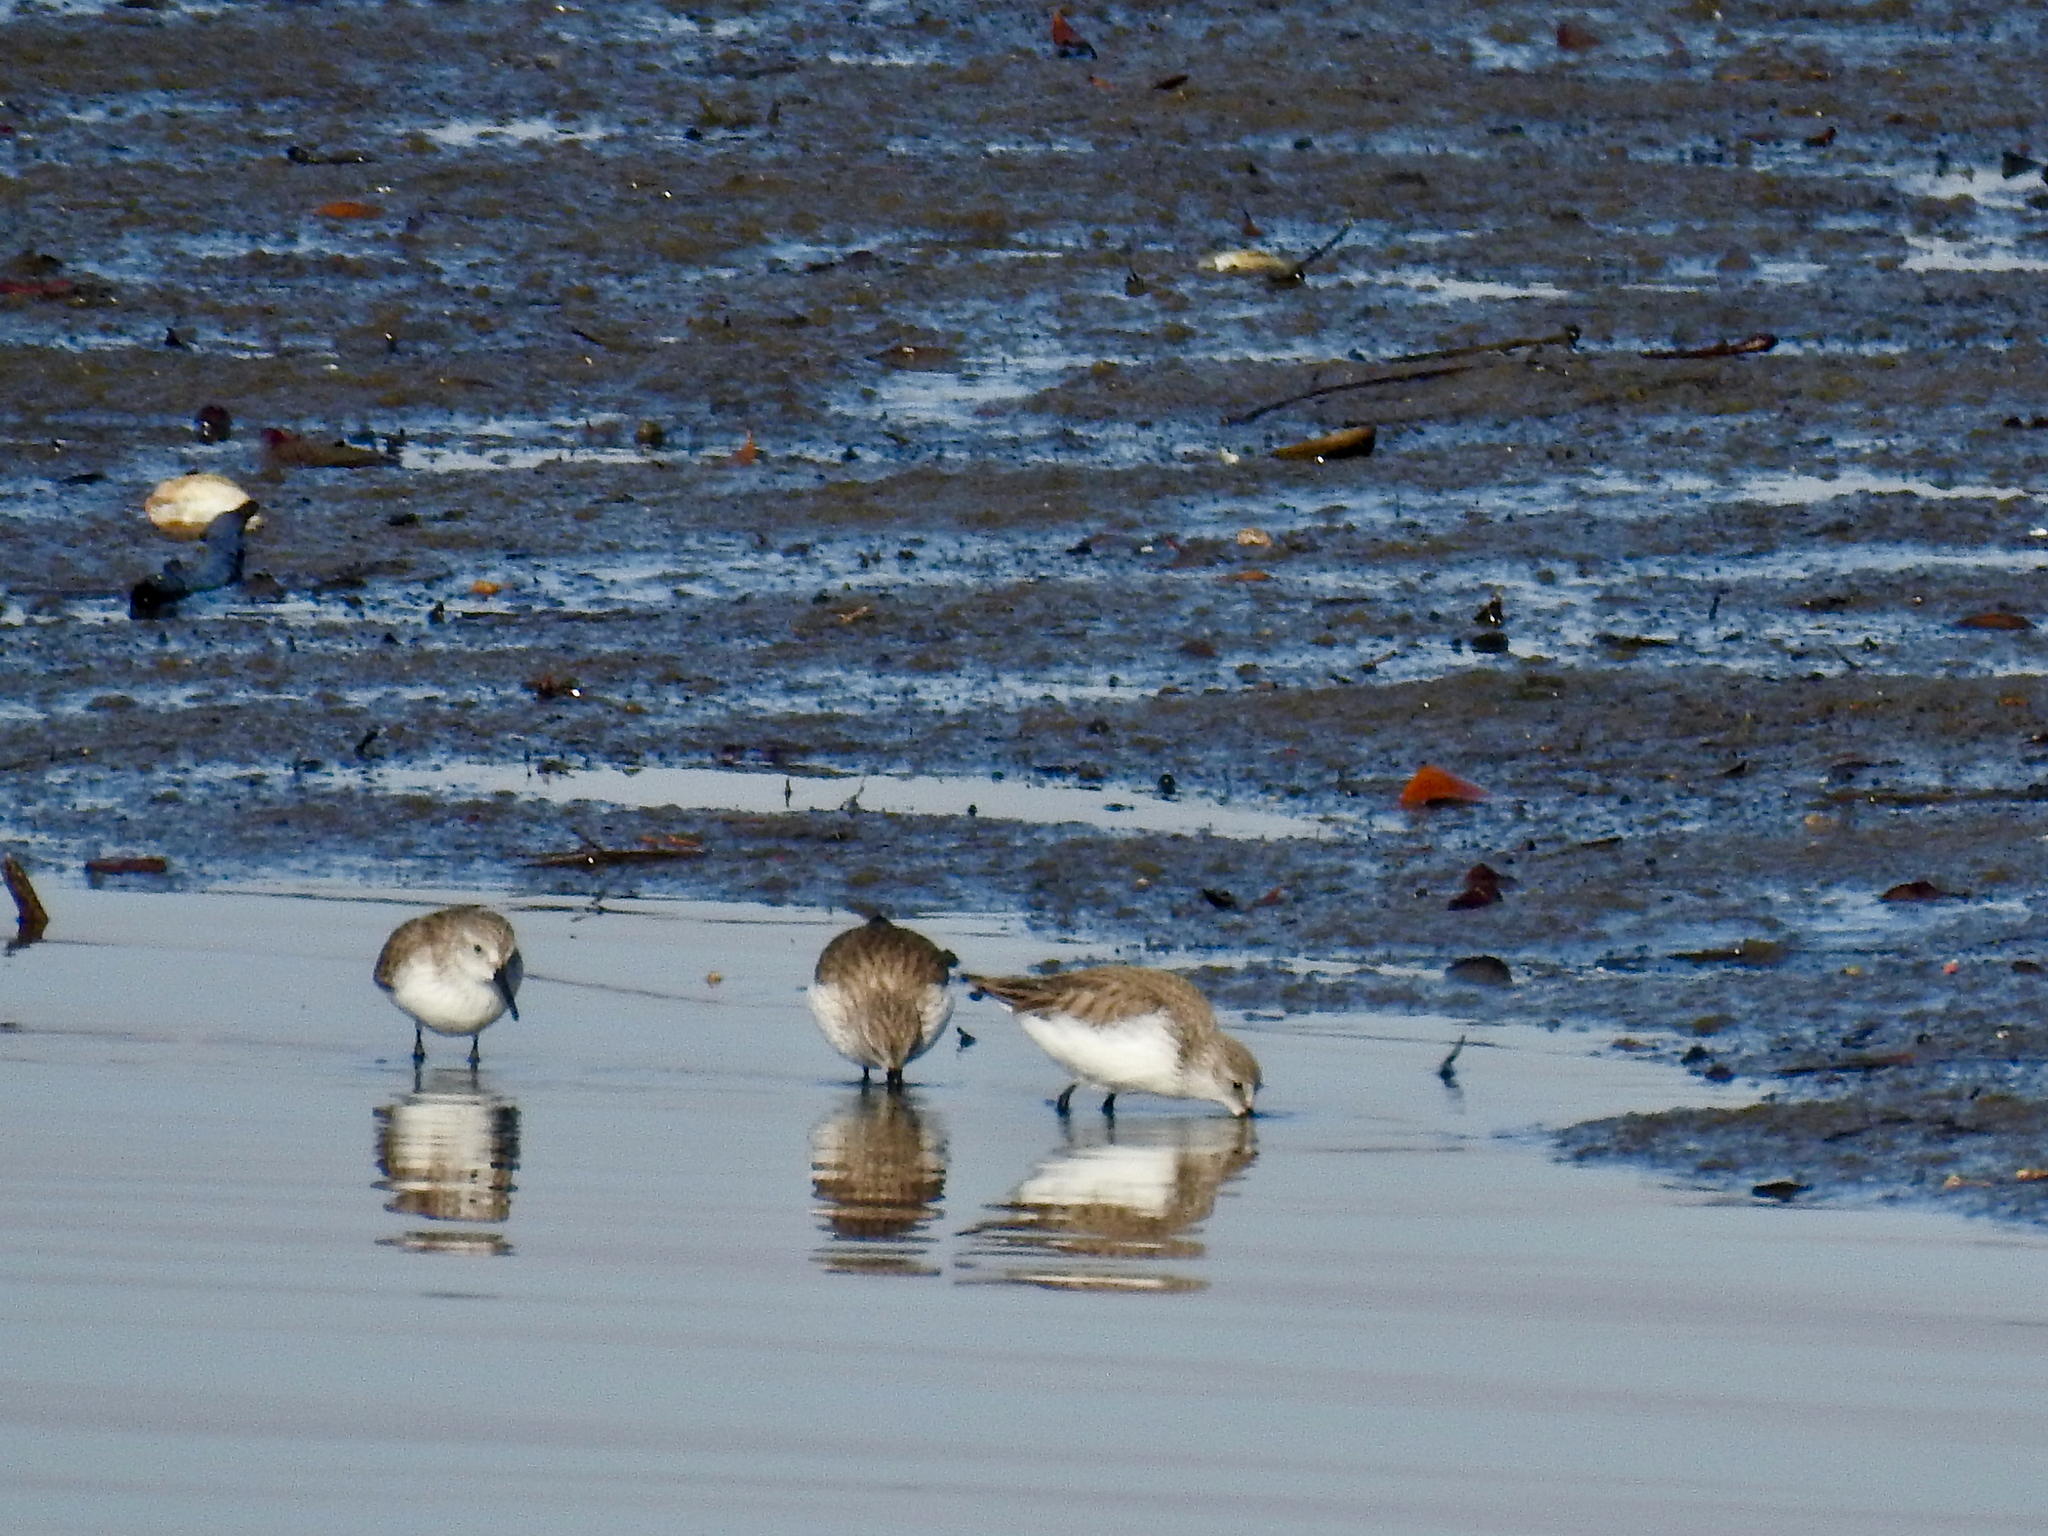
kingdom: Animalia
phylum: Chordata
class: Aves
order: Charadriiformes
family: Scolopacidae
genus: Calidris
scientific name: Calidris mauri
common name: Western sandpiper
